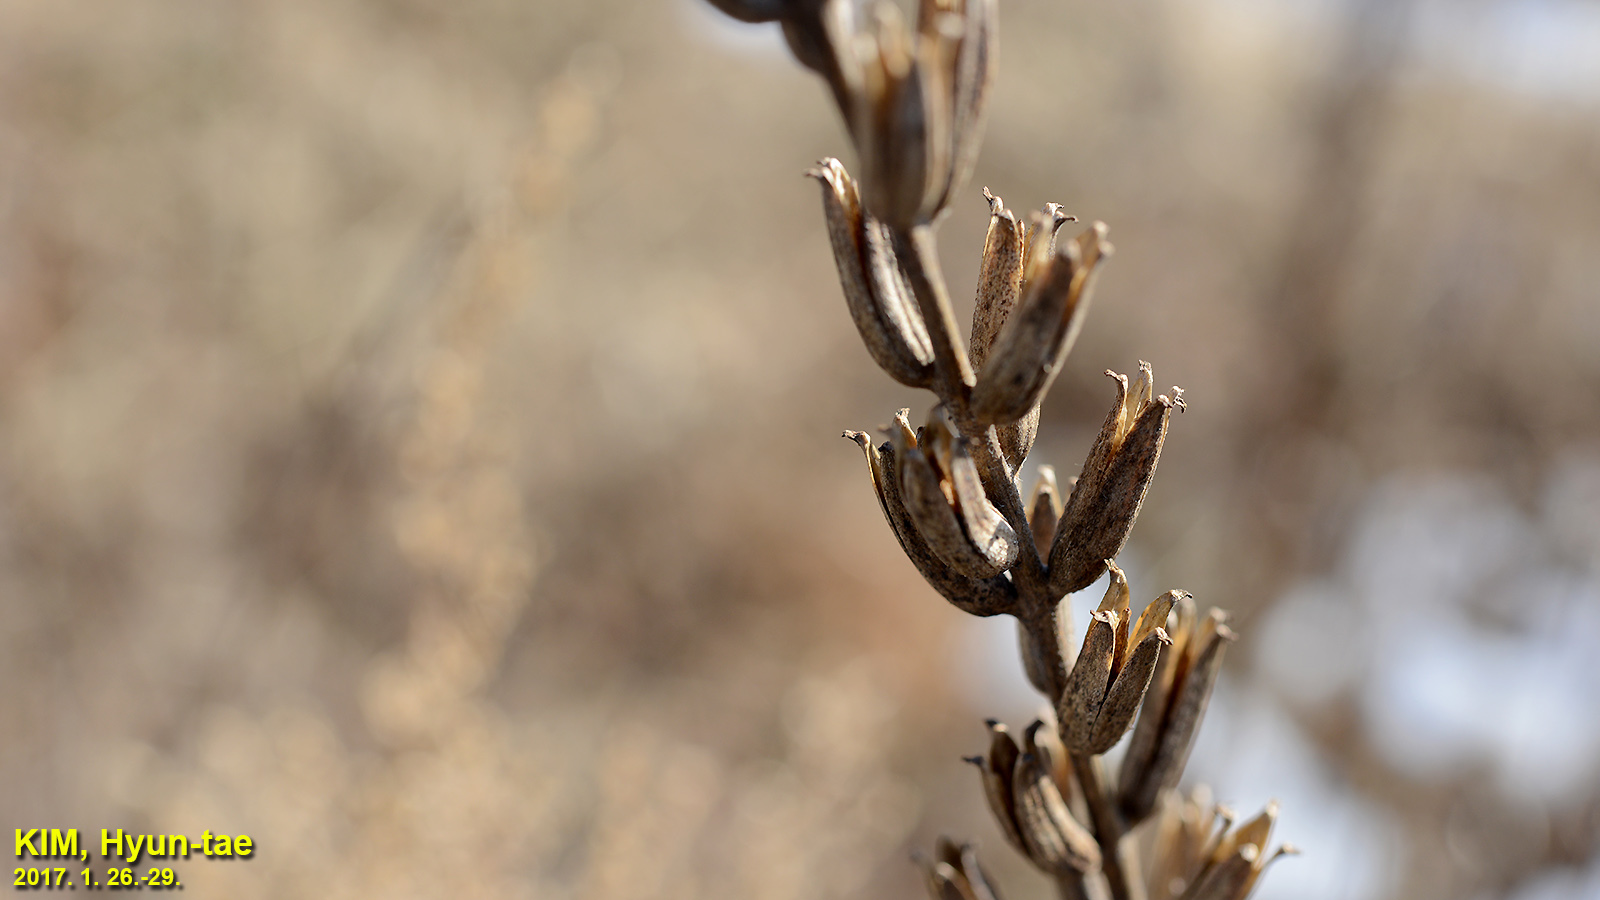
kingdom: Plantae
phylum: Tracheophyta
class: Magnoliopsida
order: Myrtales
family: Onagraceae
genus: Oenothera
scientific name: Oenothera biennis
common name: Common evening-primrose
